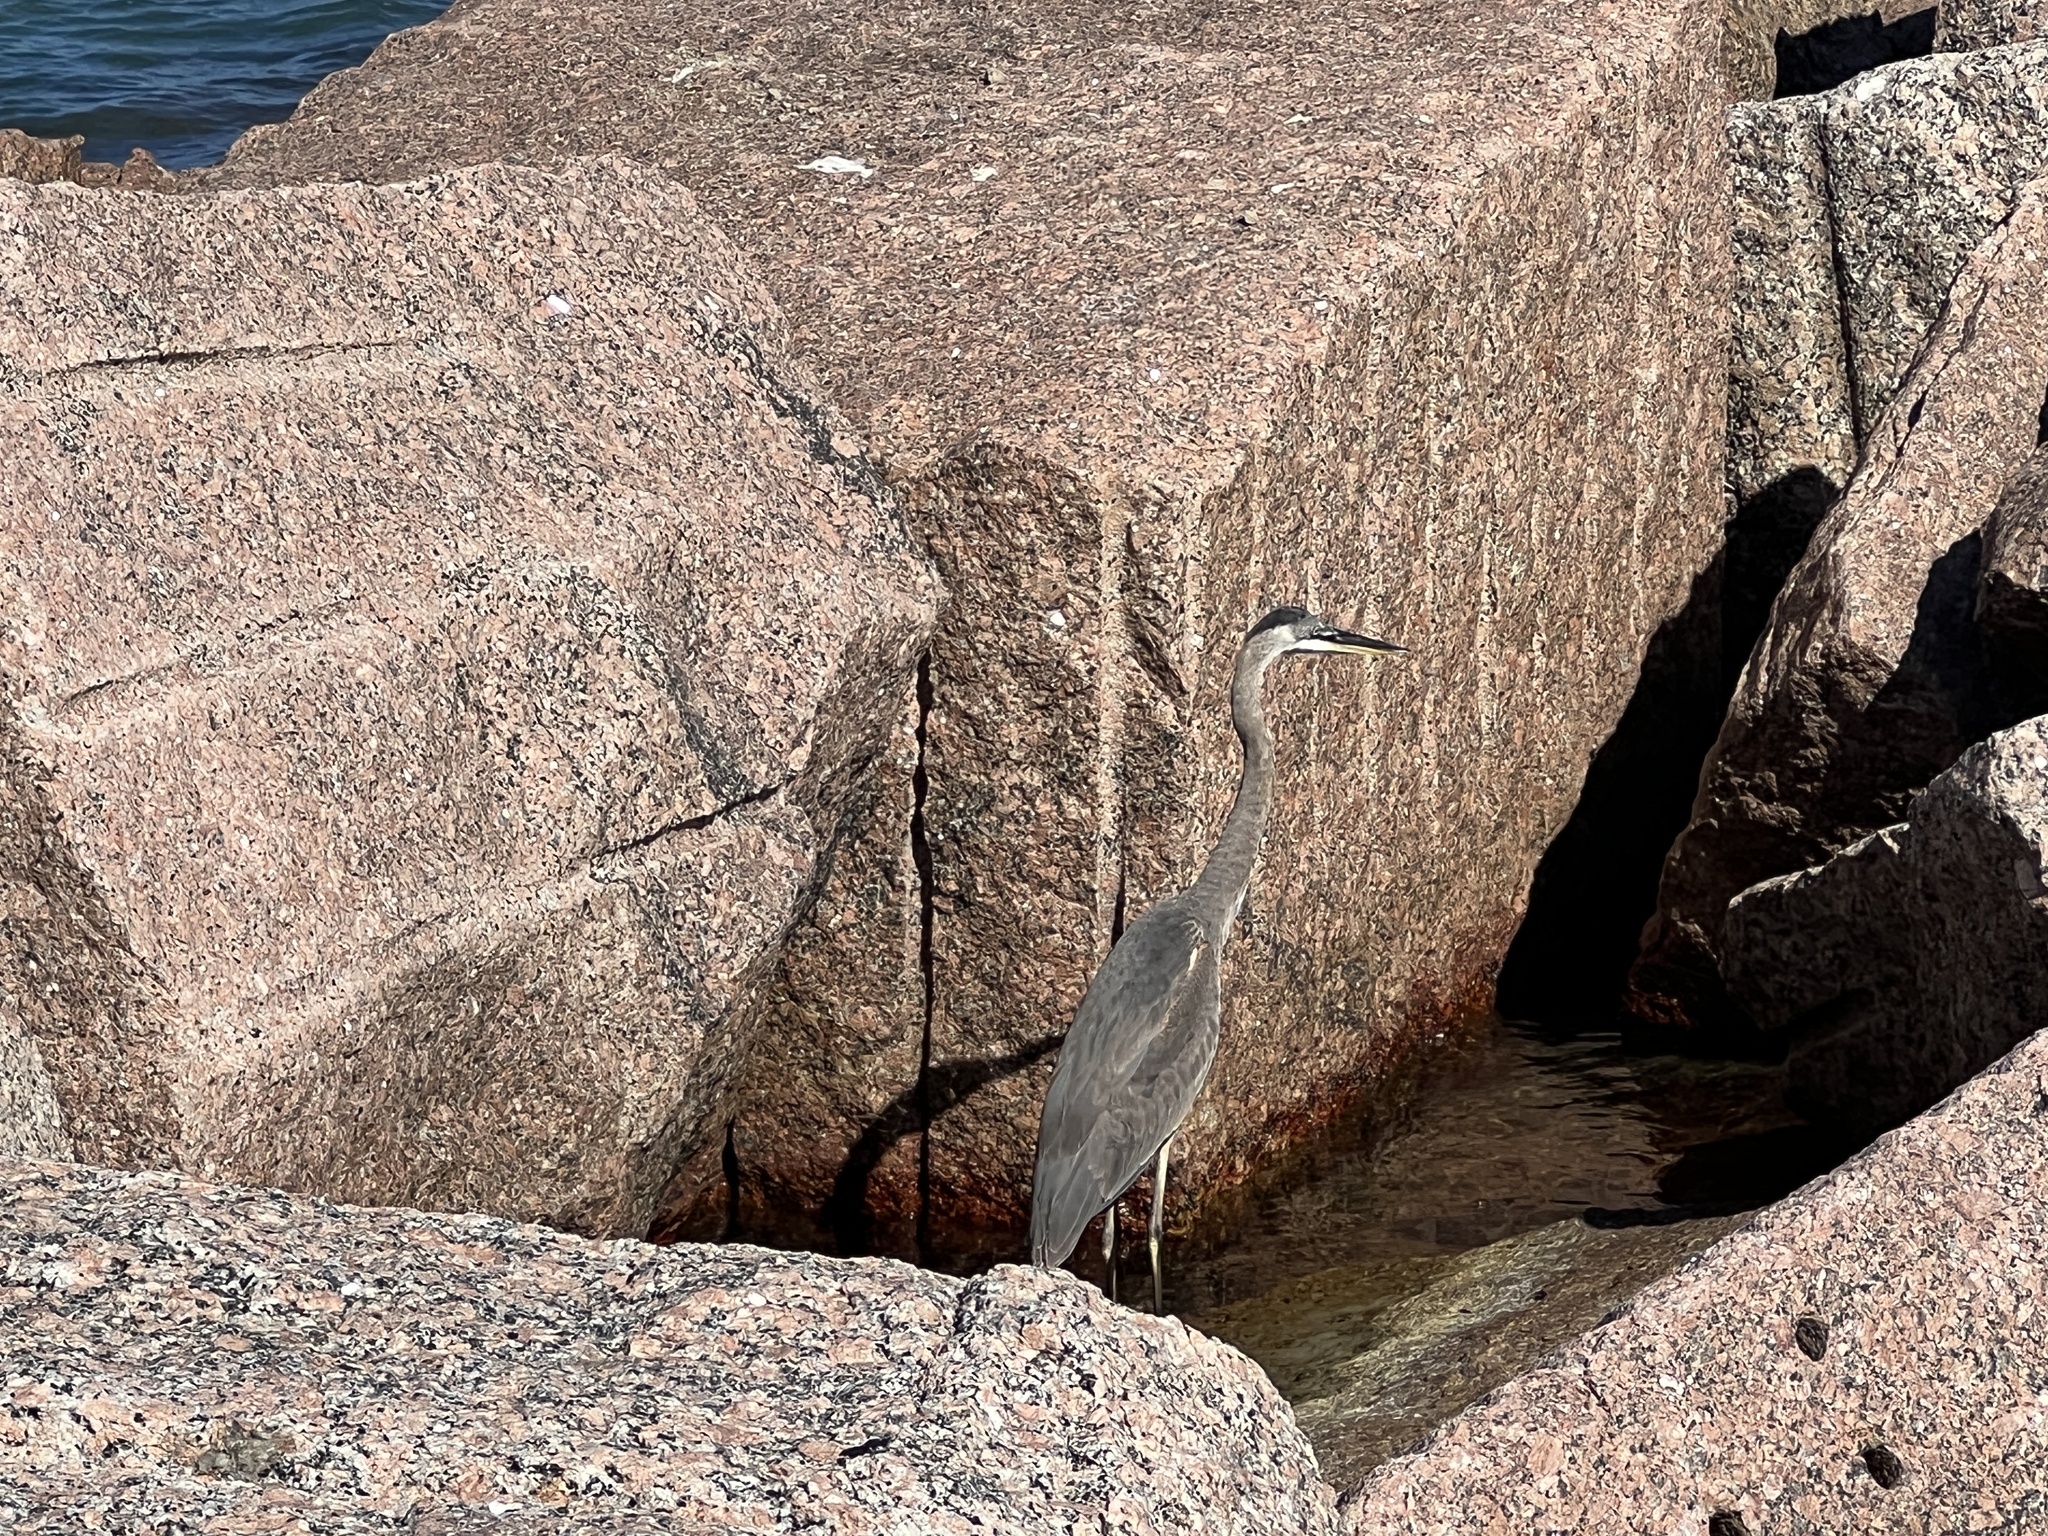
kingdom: Animalia
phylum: Chordata
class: Aves
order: Pelecaniformes
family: Ardeidae
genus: Ardea
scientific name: Ardea herodias
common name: Great blue heron
